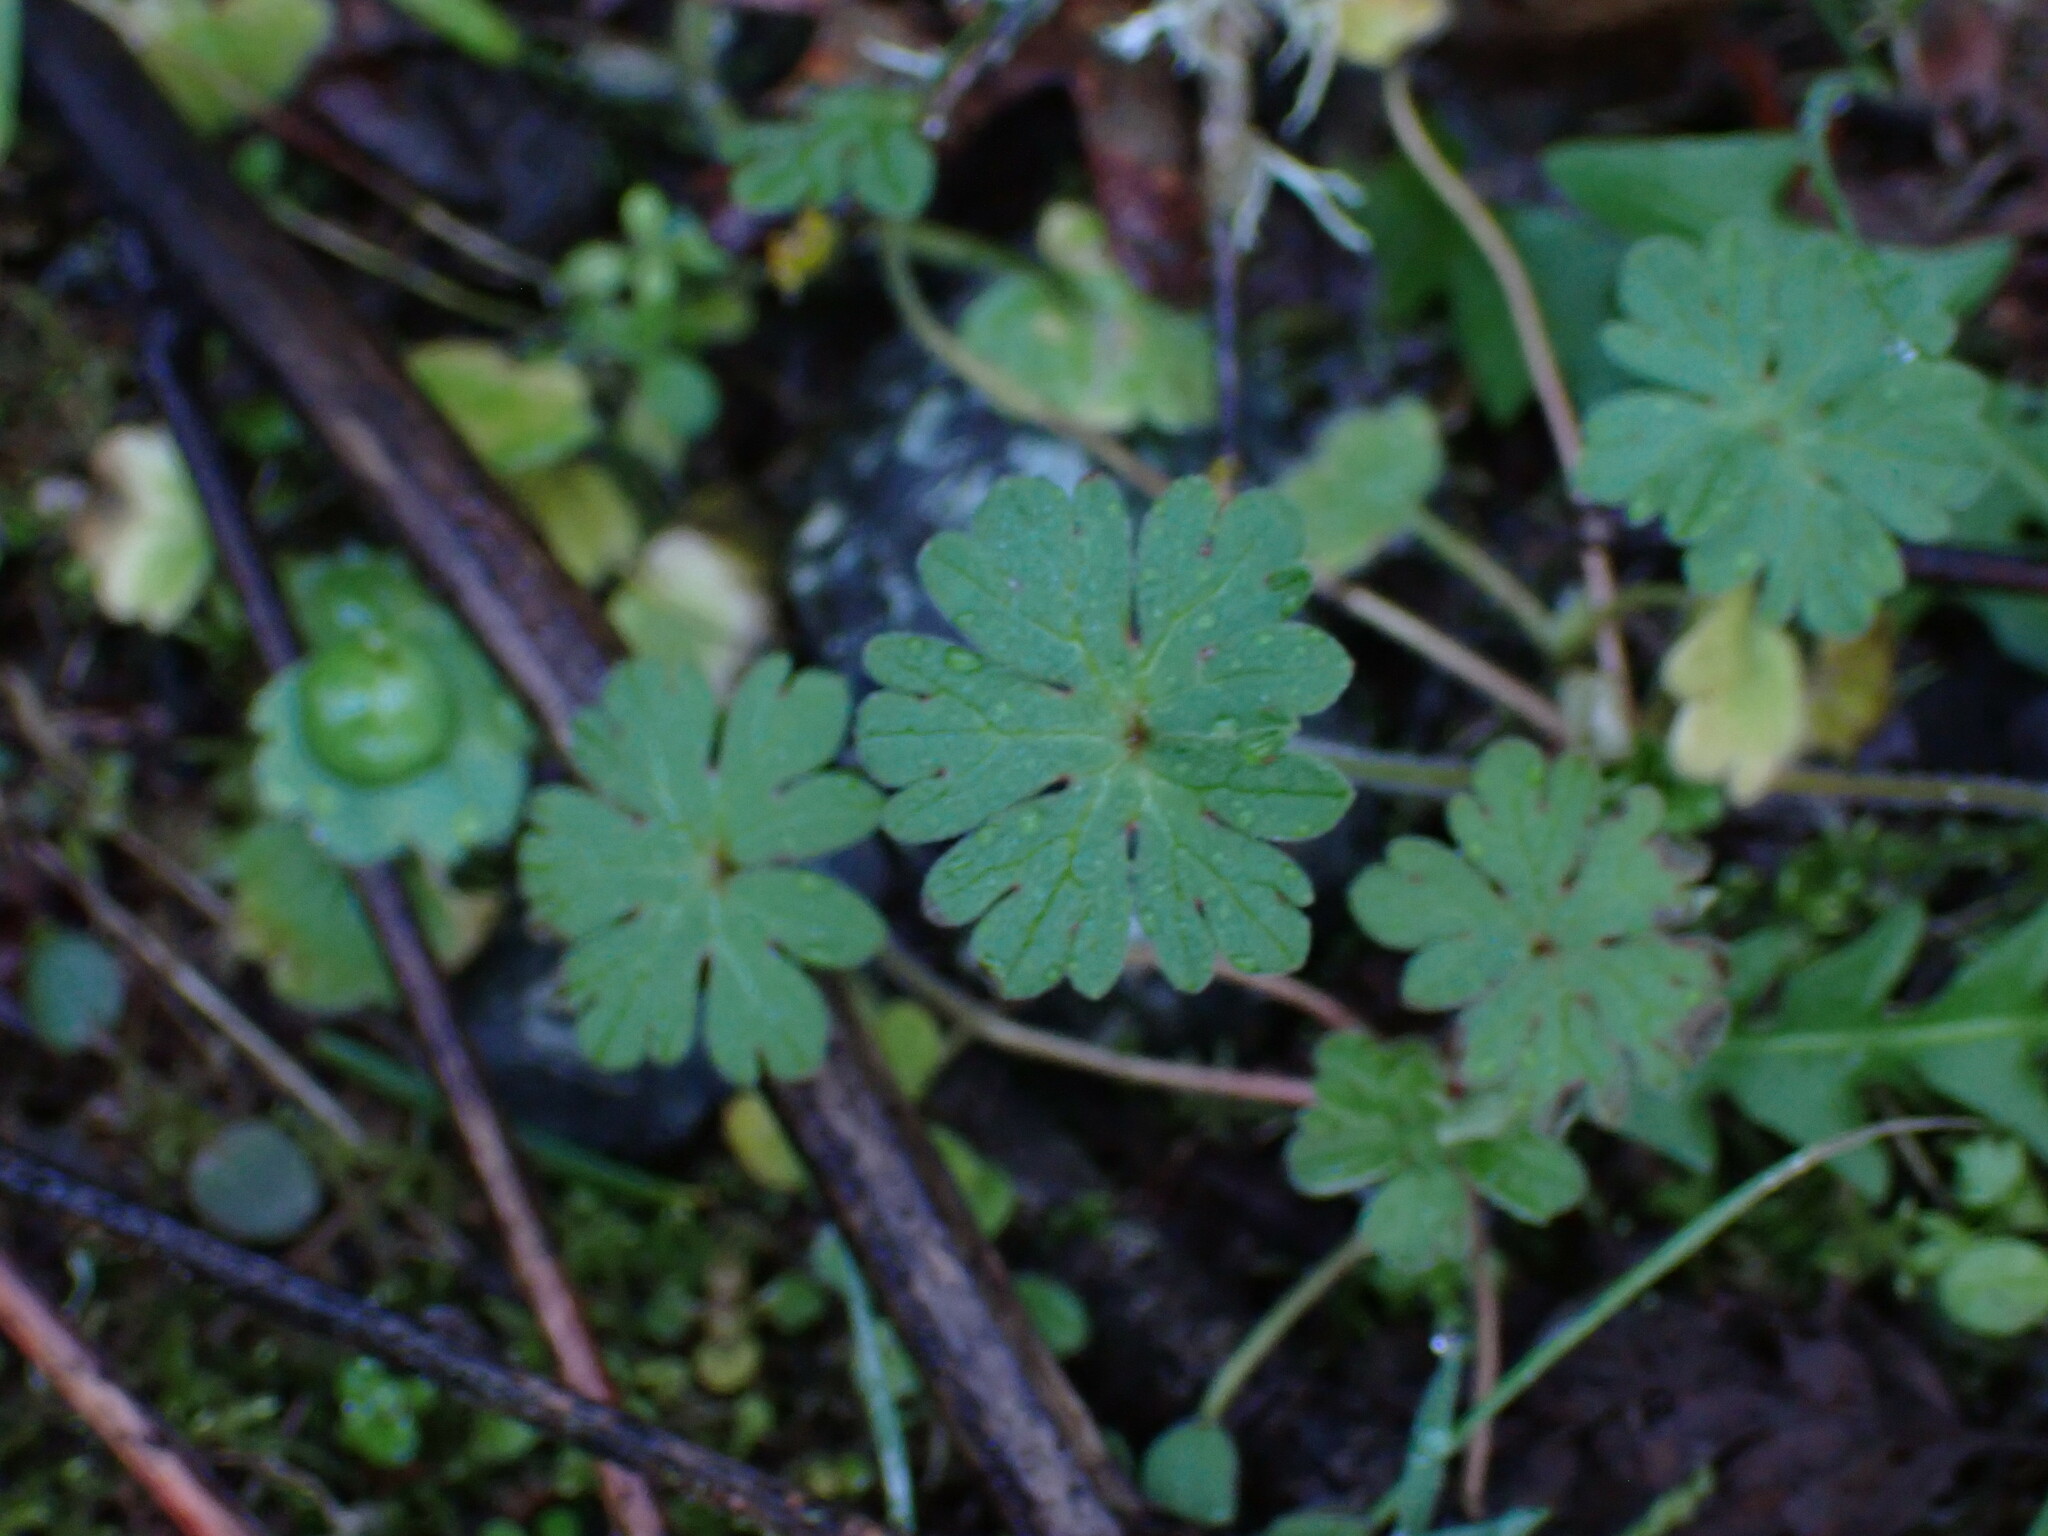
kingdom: Plantae
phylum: Tracheophyta
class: Magnoliopsida
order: Geraniales
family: Geraniaceae
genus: Geranium
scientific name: Geranium molle
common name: Dove's-foot crane's-bill
